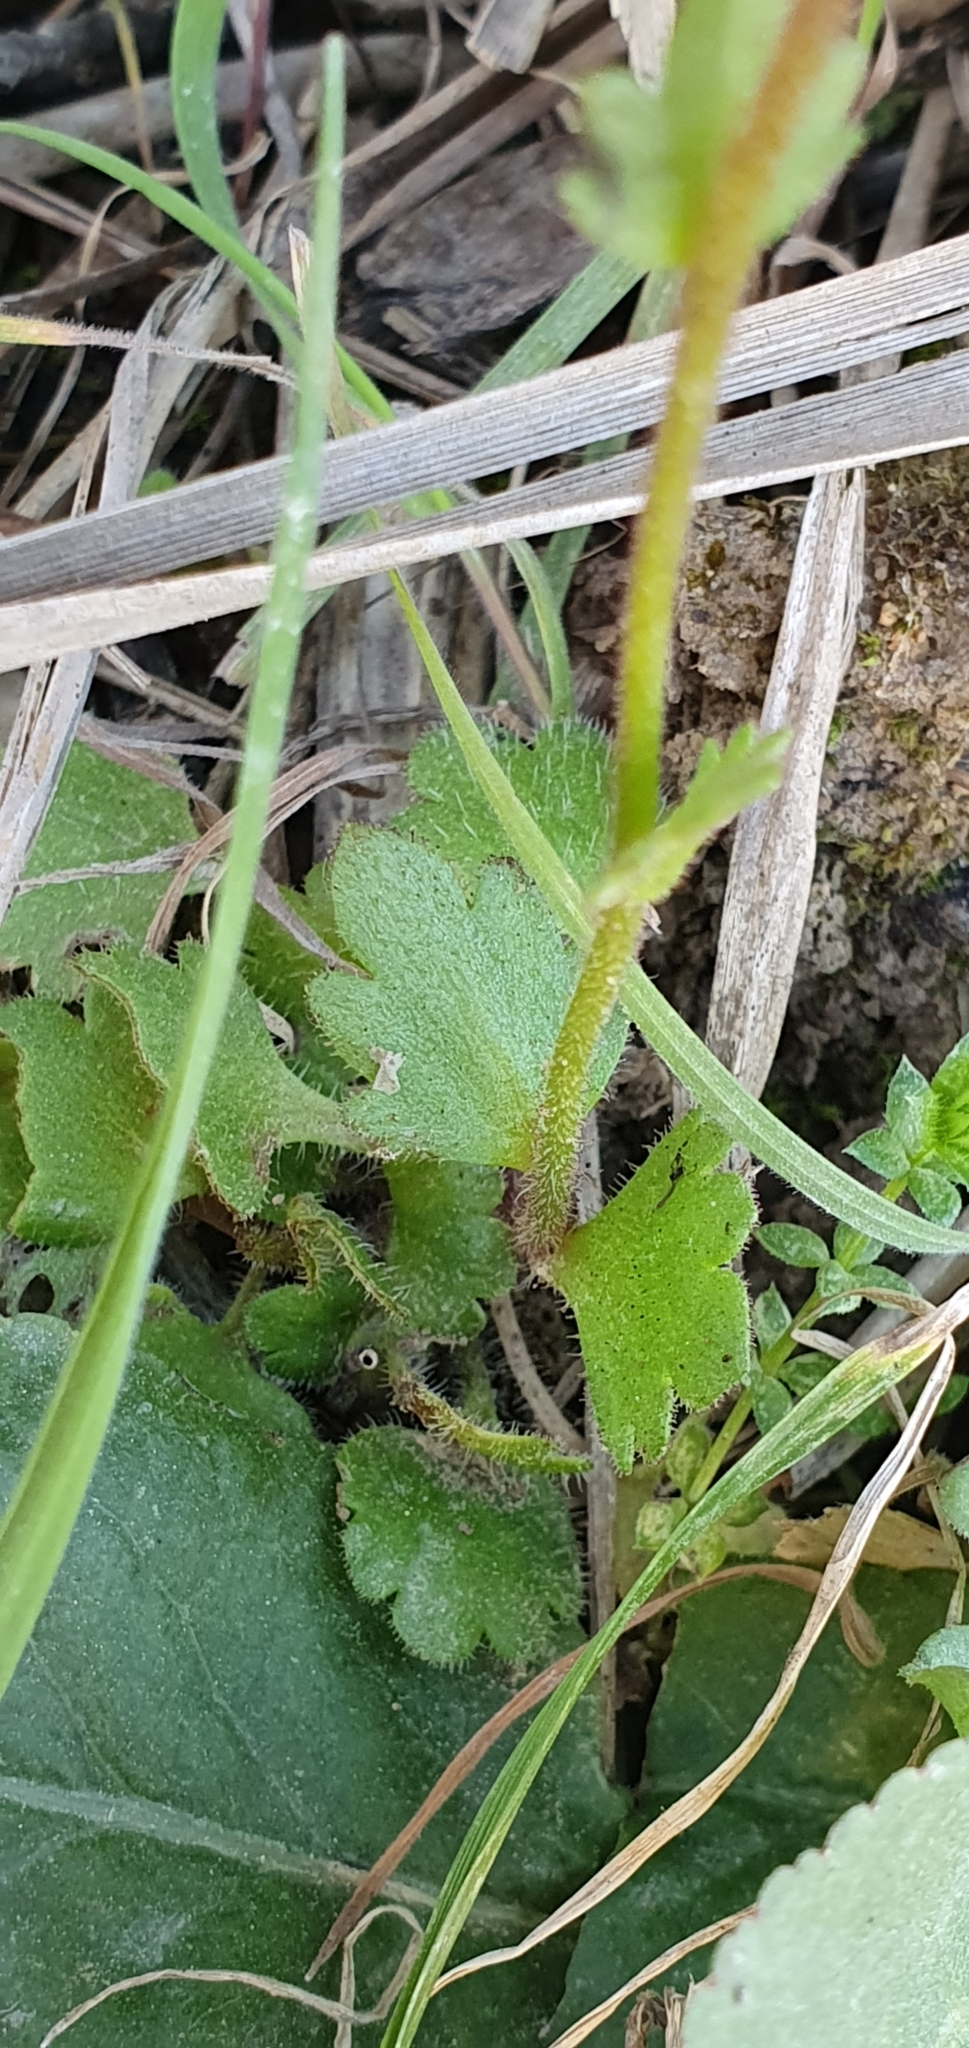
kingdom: Plantae
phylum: Tracheophyta
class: Magnoliopsida
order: Saxifragales
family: Saxifragaceae
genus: Saxifraga
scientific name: Saxifraga carpetana
